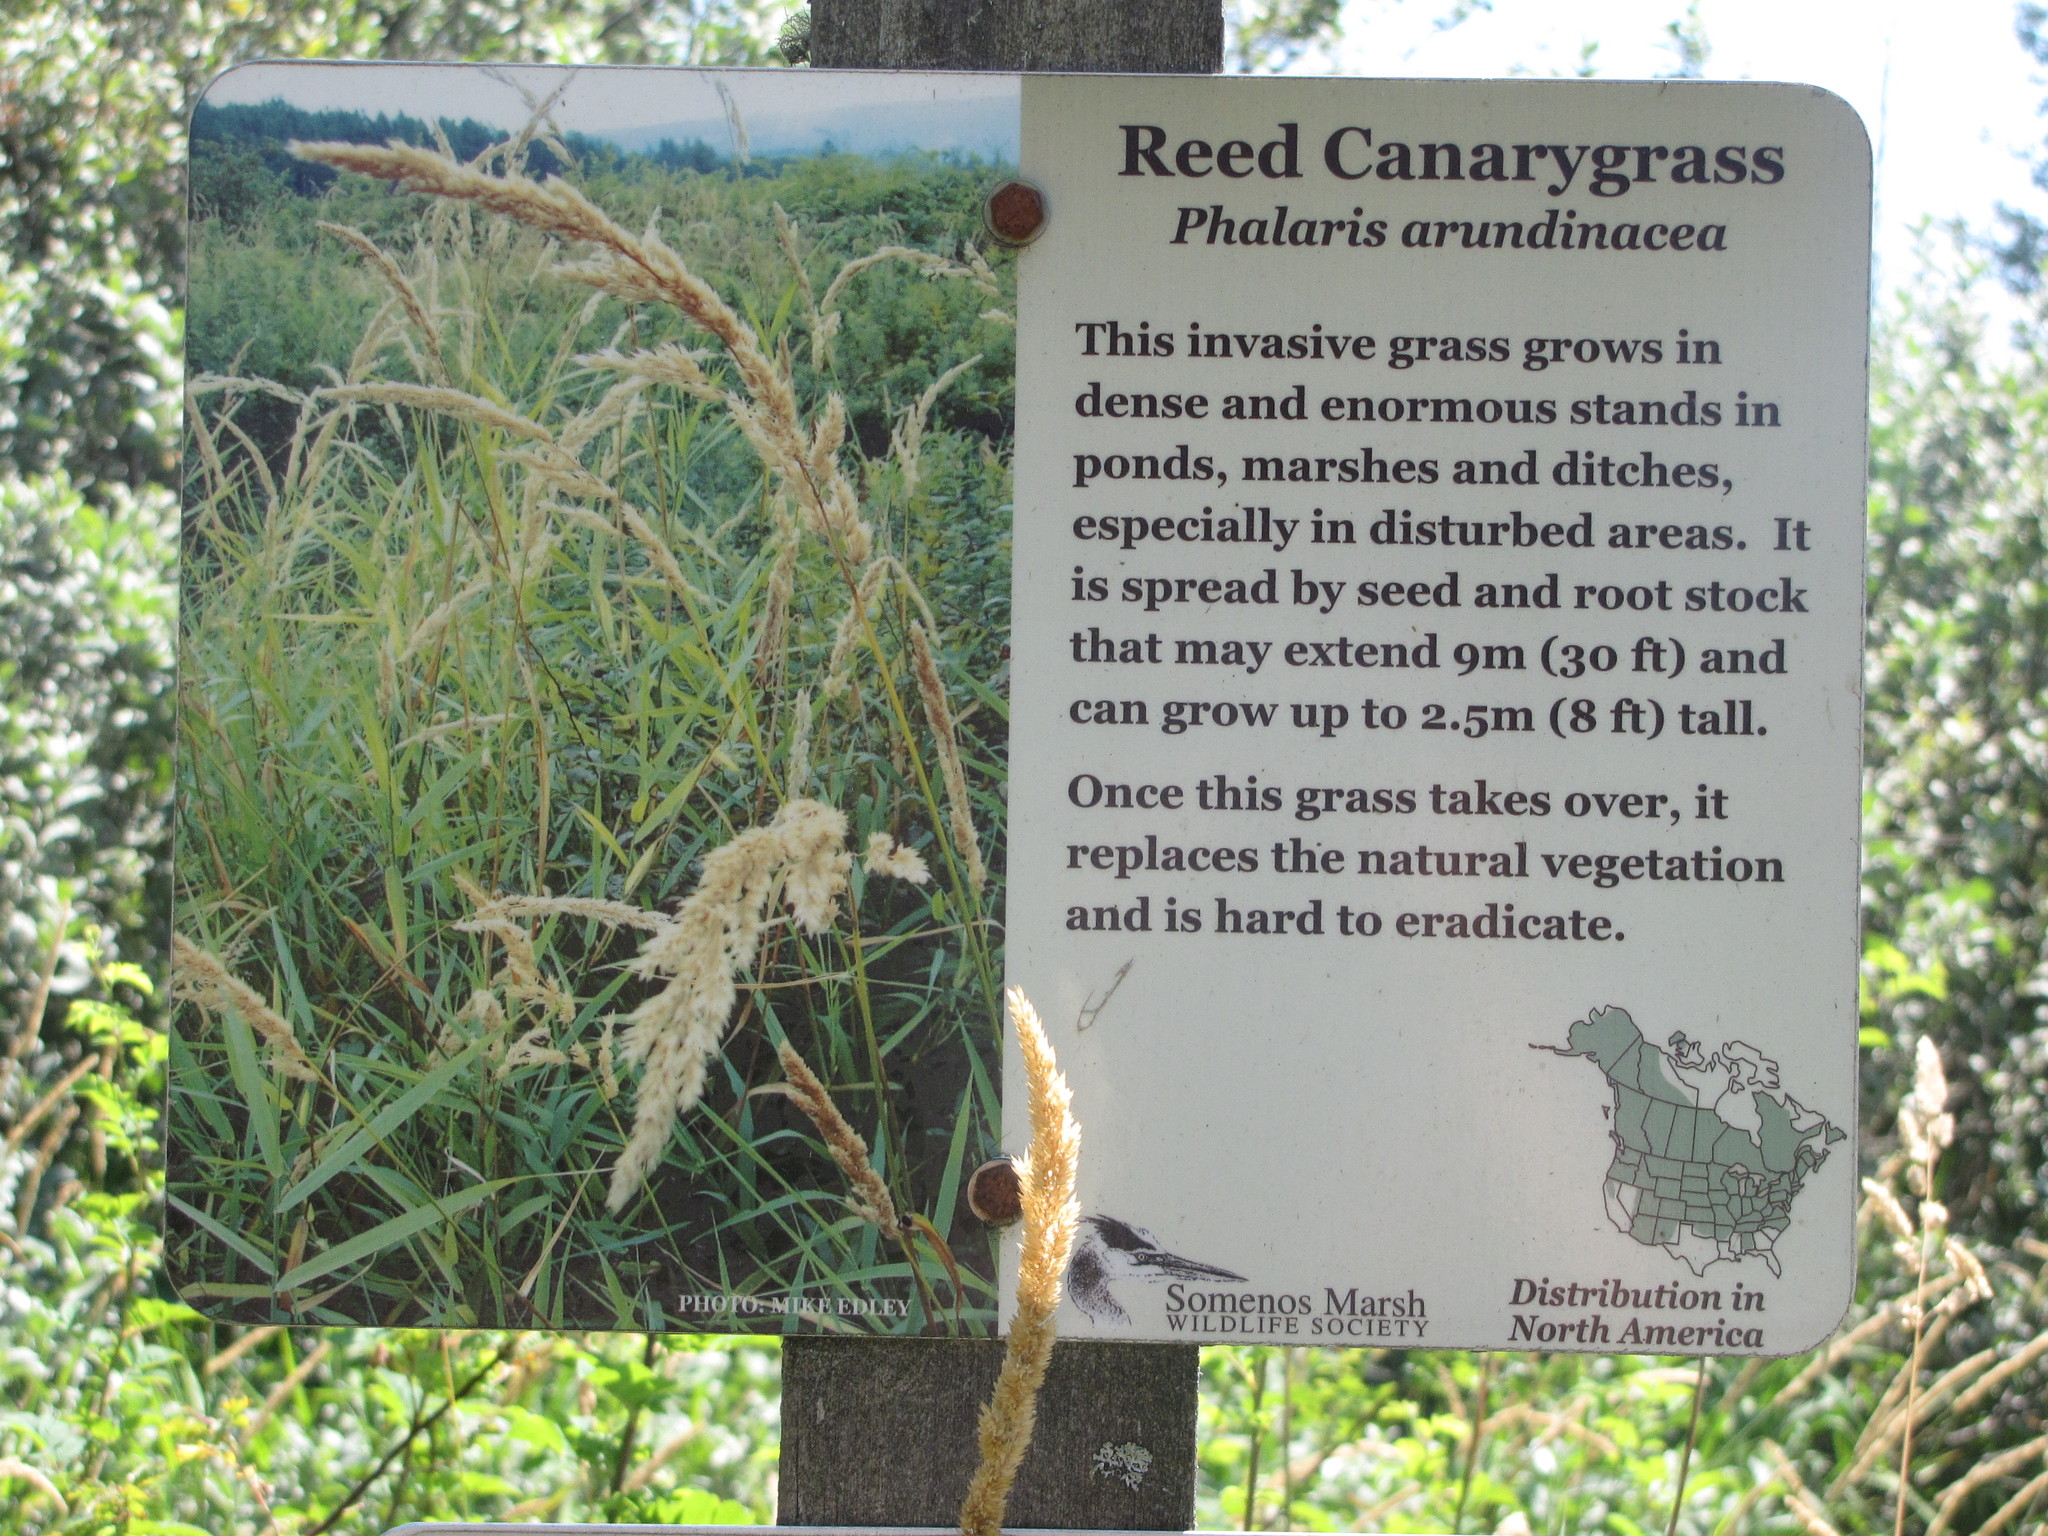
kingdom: Plantae
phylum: Tracheophyta
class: Liliopsida
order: Poales
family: Poaceae
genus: Phalaris
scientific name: Phalaris arundinacea
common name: Reed canary-grass
